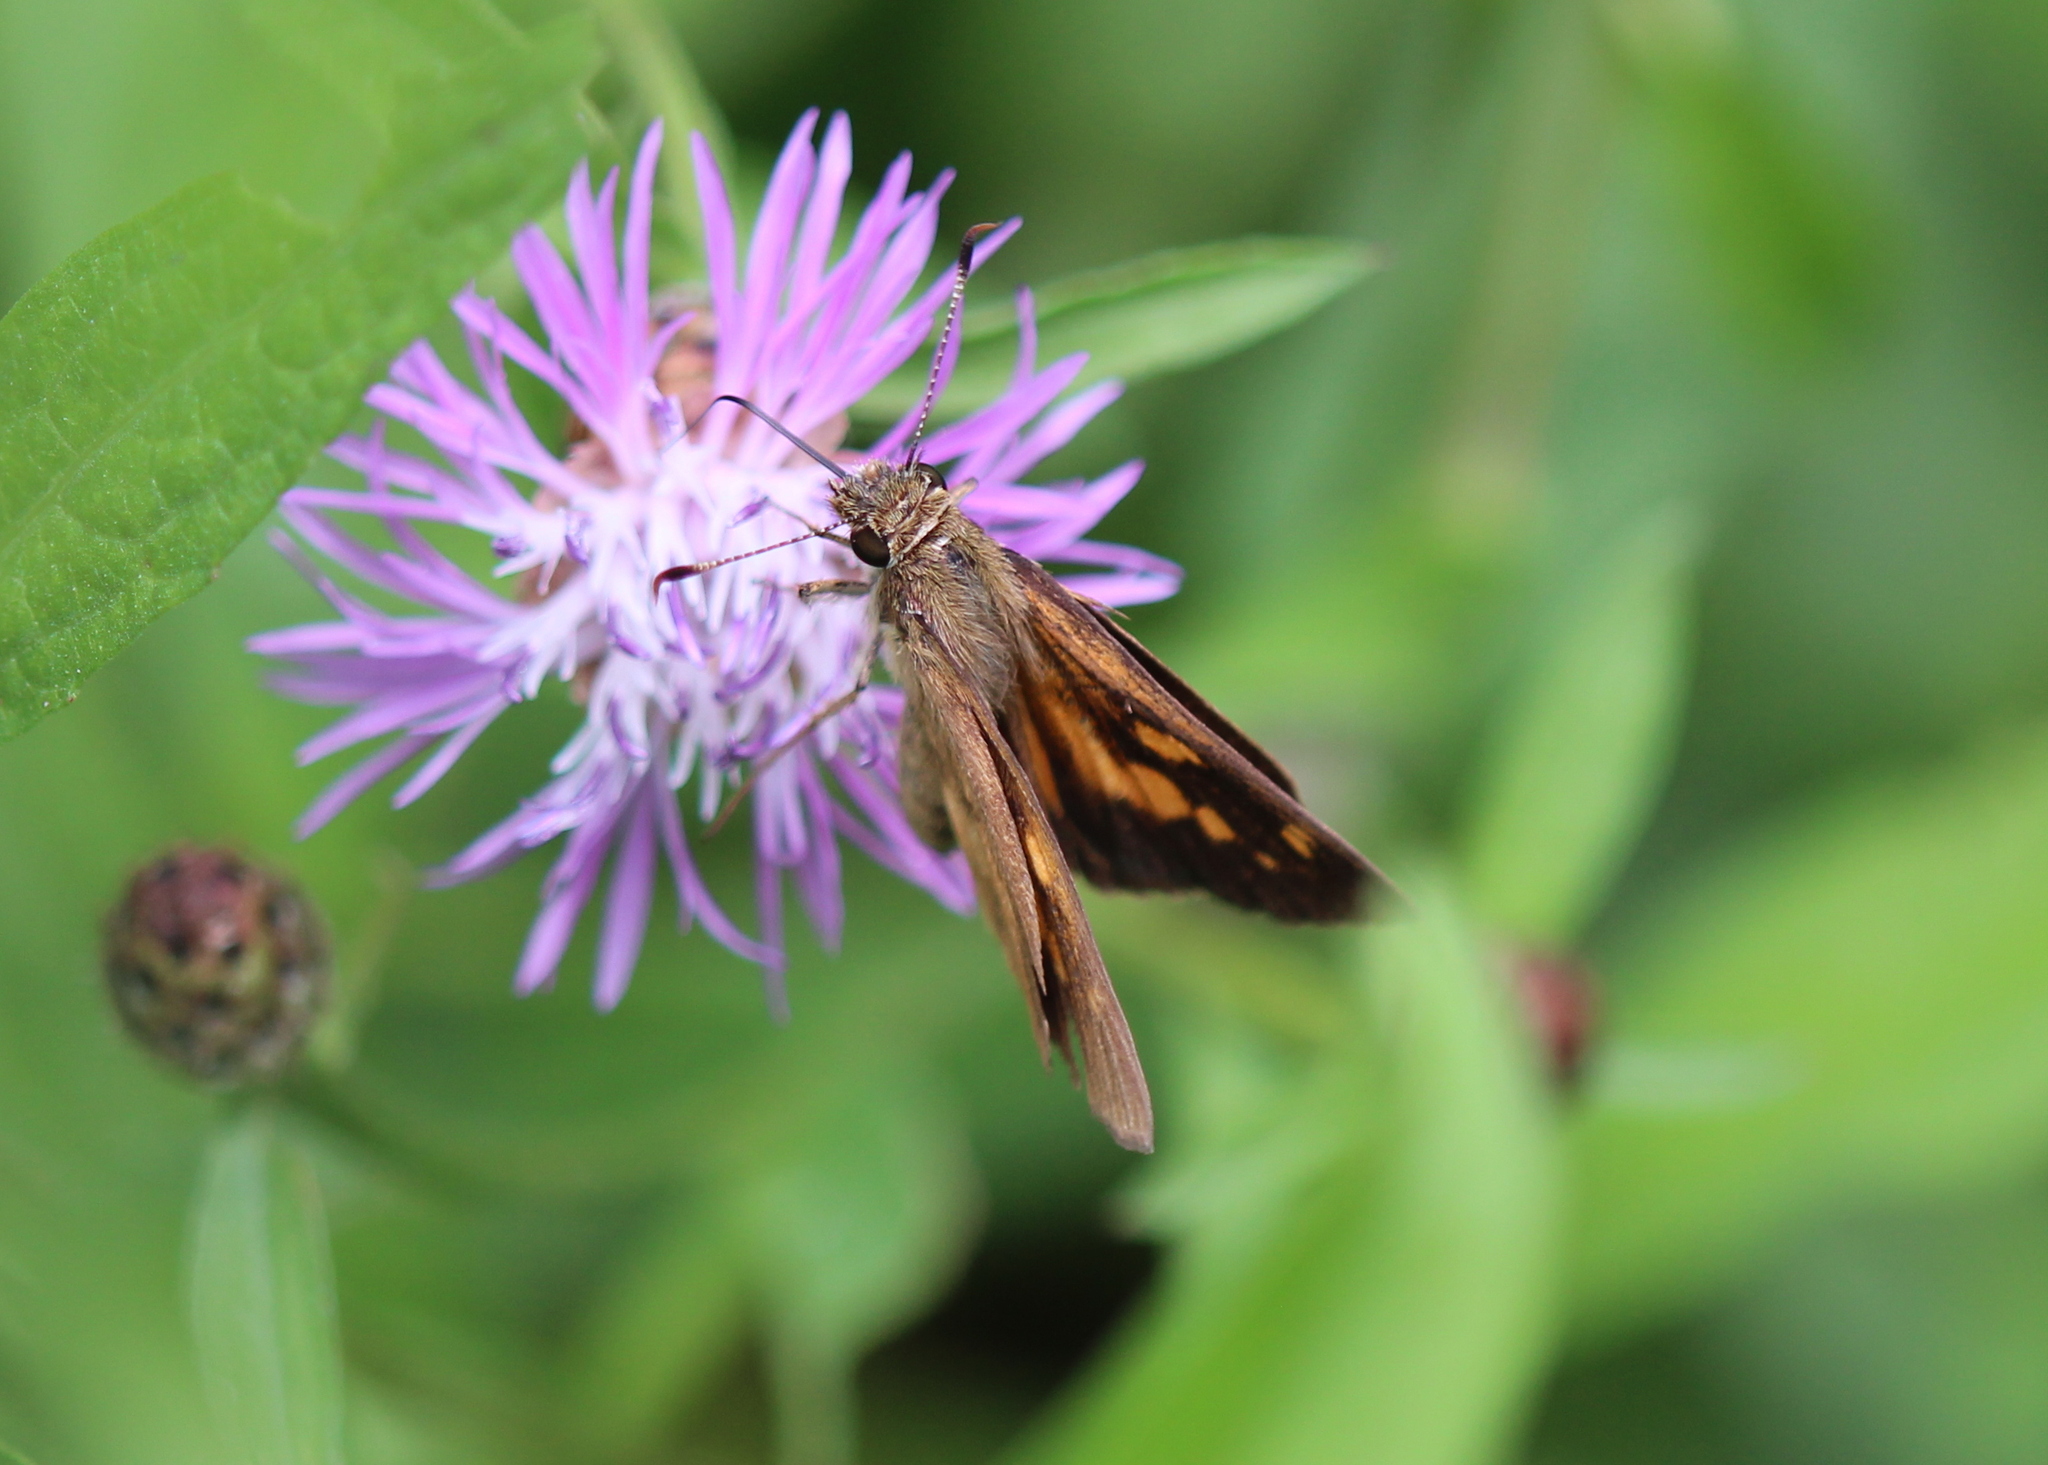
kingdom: Animalia
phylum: Arthropoda
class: Insecta
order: Lepidoptera
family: Hesperiidae
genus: Poanes
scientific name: Poanes viator
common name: Broad-winged skipper
